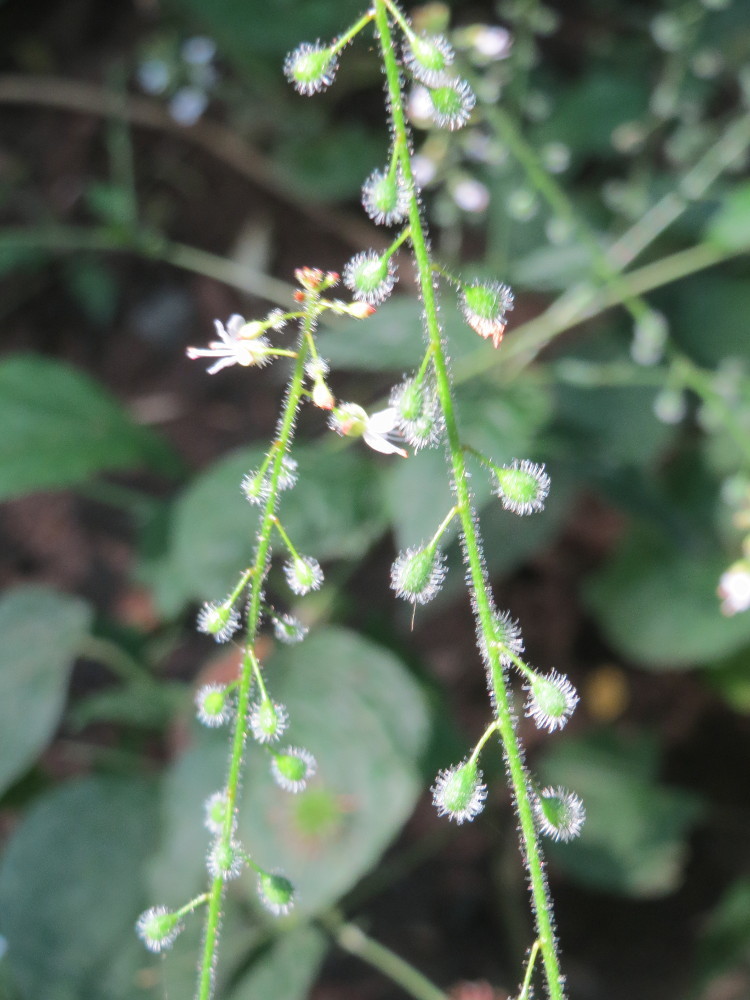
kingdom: Plantae
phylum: Tracheophyta
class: Magnoliopsida
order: Myrtales
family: Onagraceae
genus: Circaea
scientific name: Circaea lutetiana
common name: Enchanter's-nightshade
